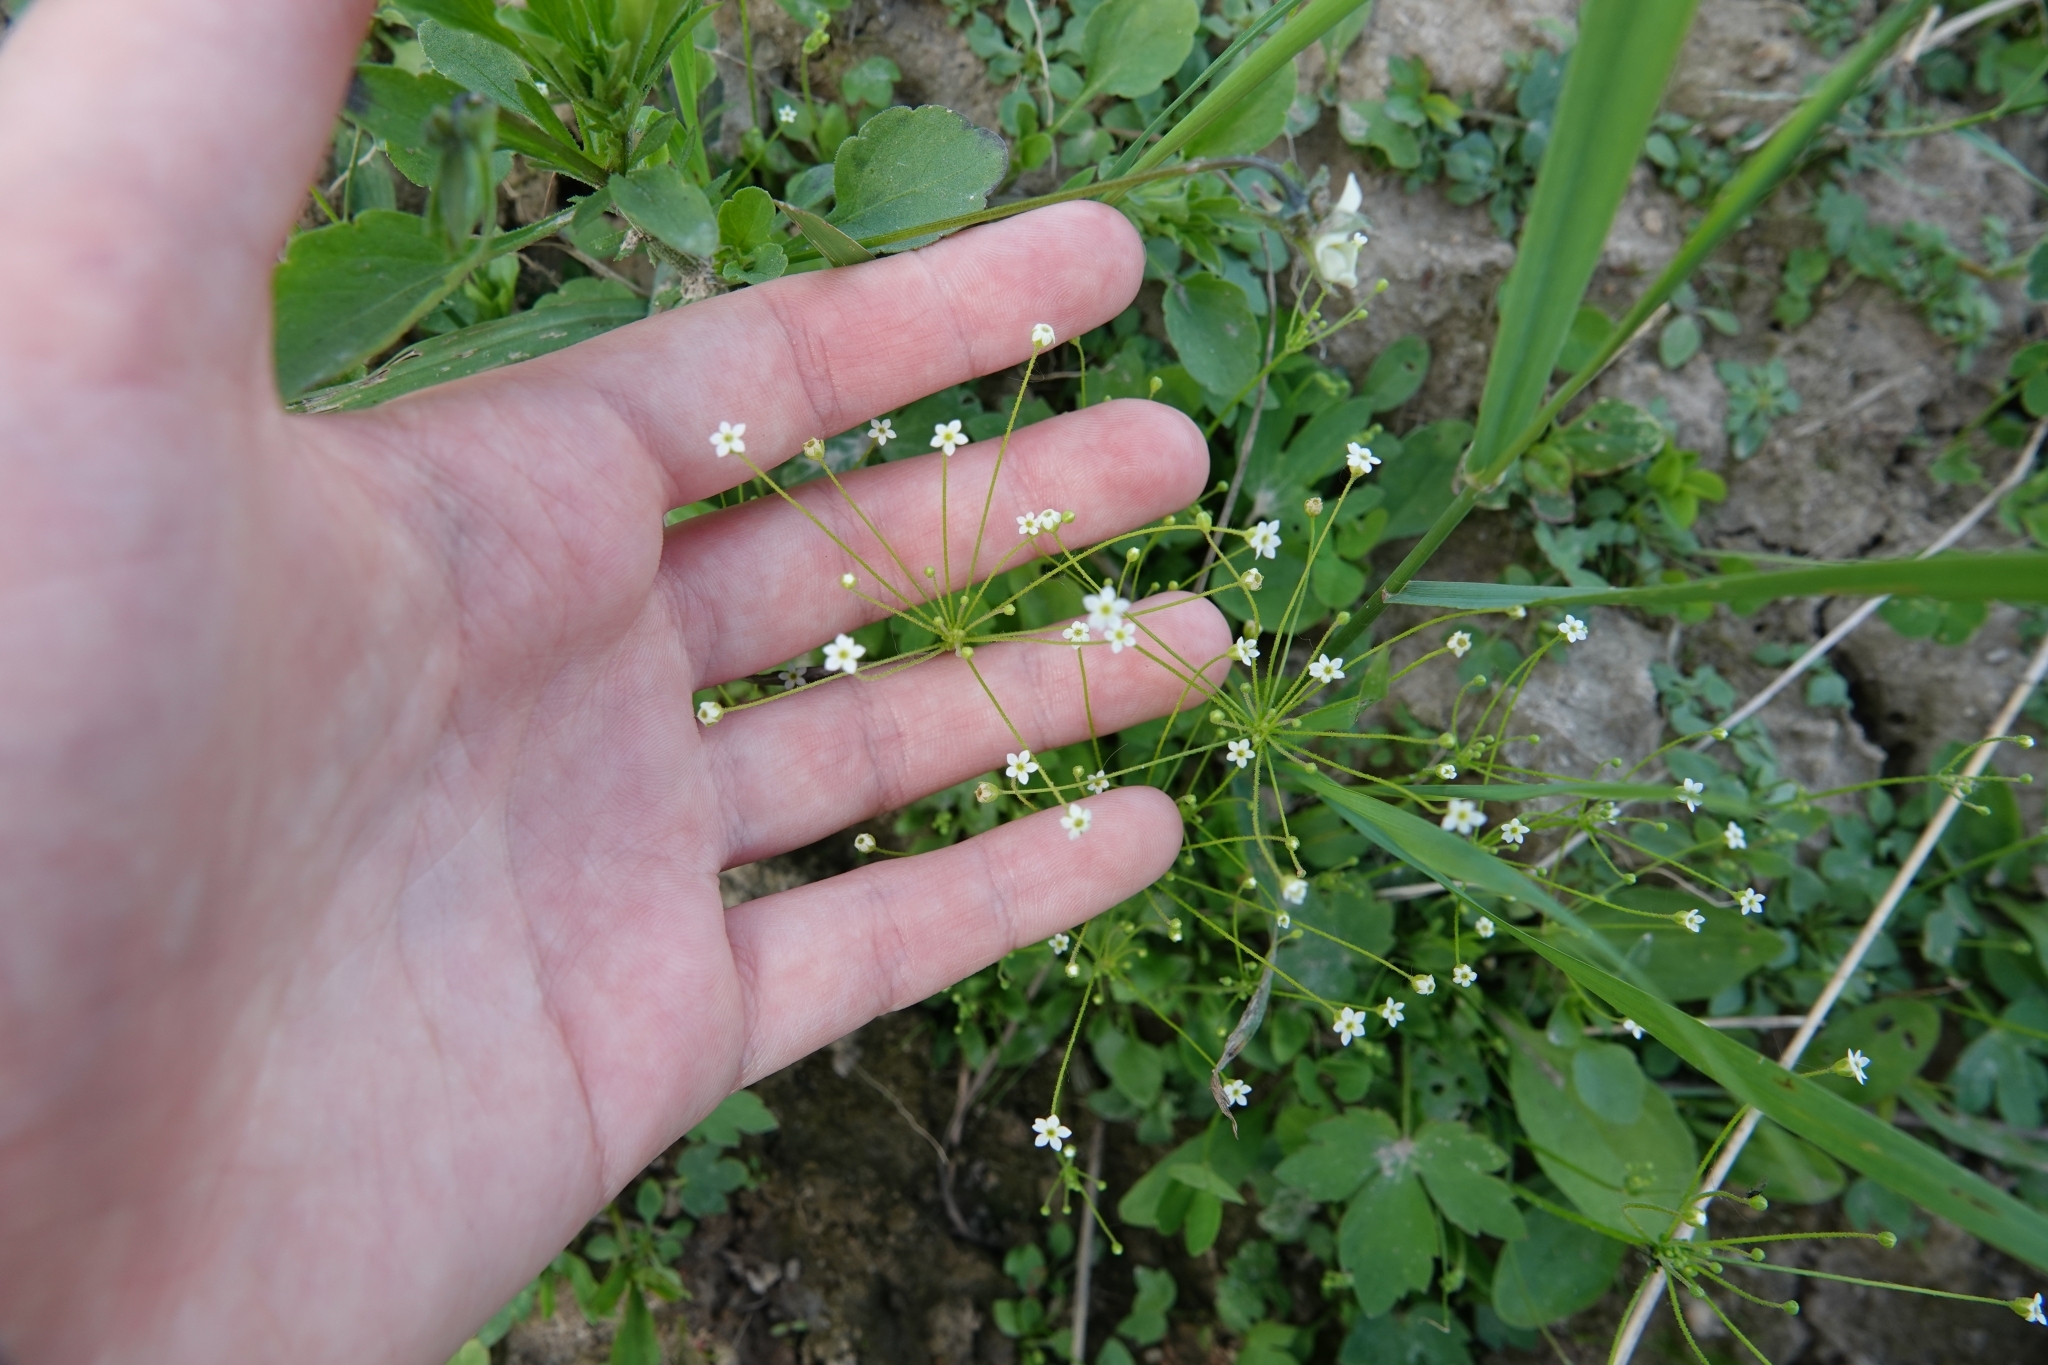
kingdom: Plantae
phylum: Tracheophyta
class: Magnoliopsida
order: Ericales
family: Primulaceae
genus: Androsace
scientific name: Androsace filiformis
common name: Filiform rock jasmine
